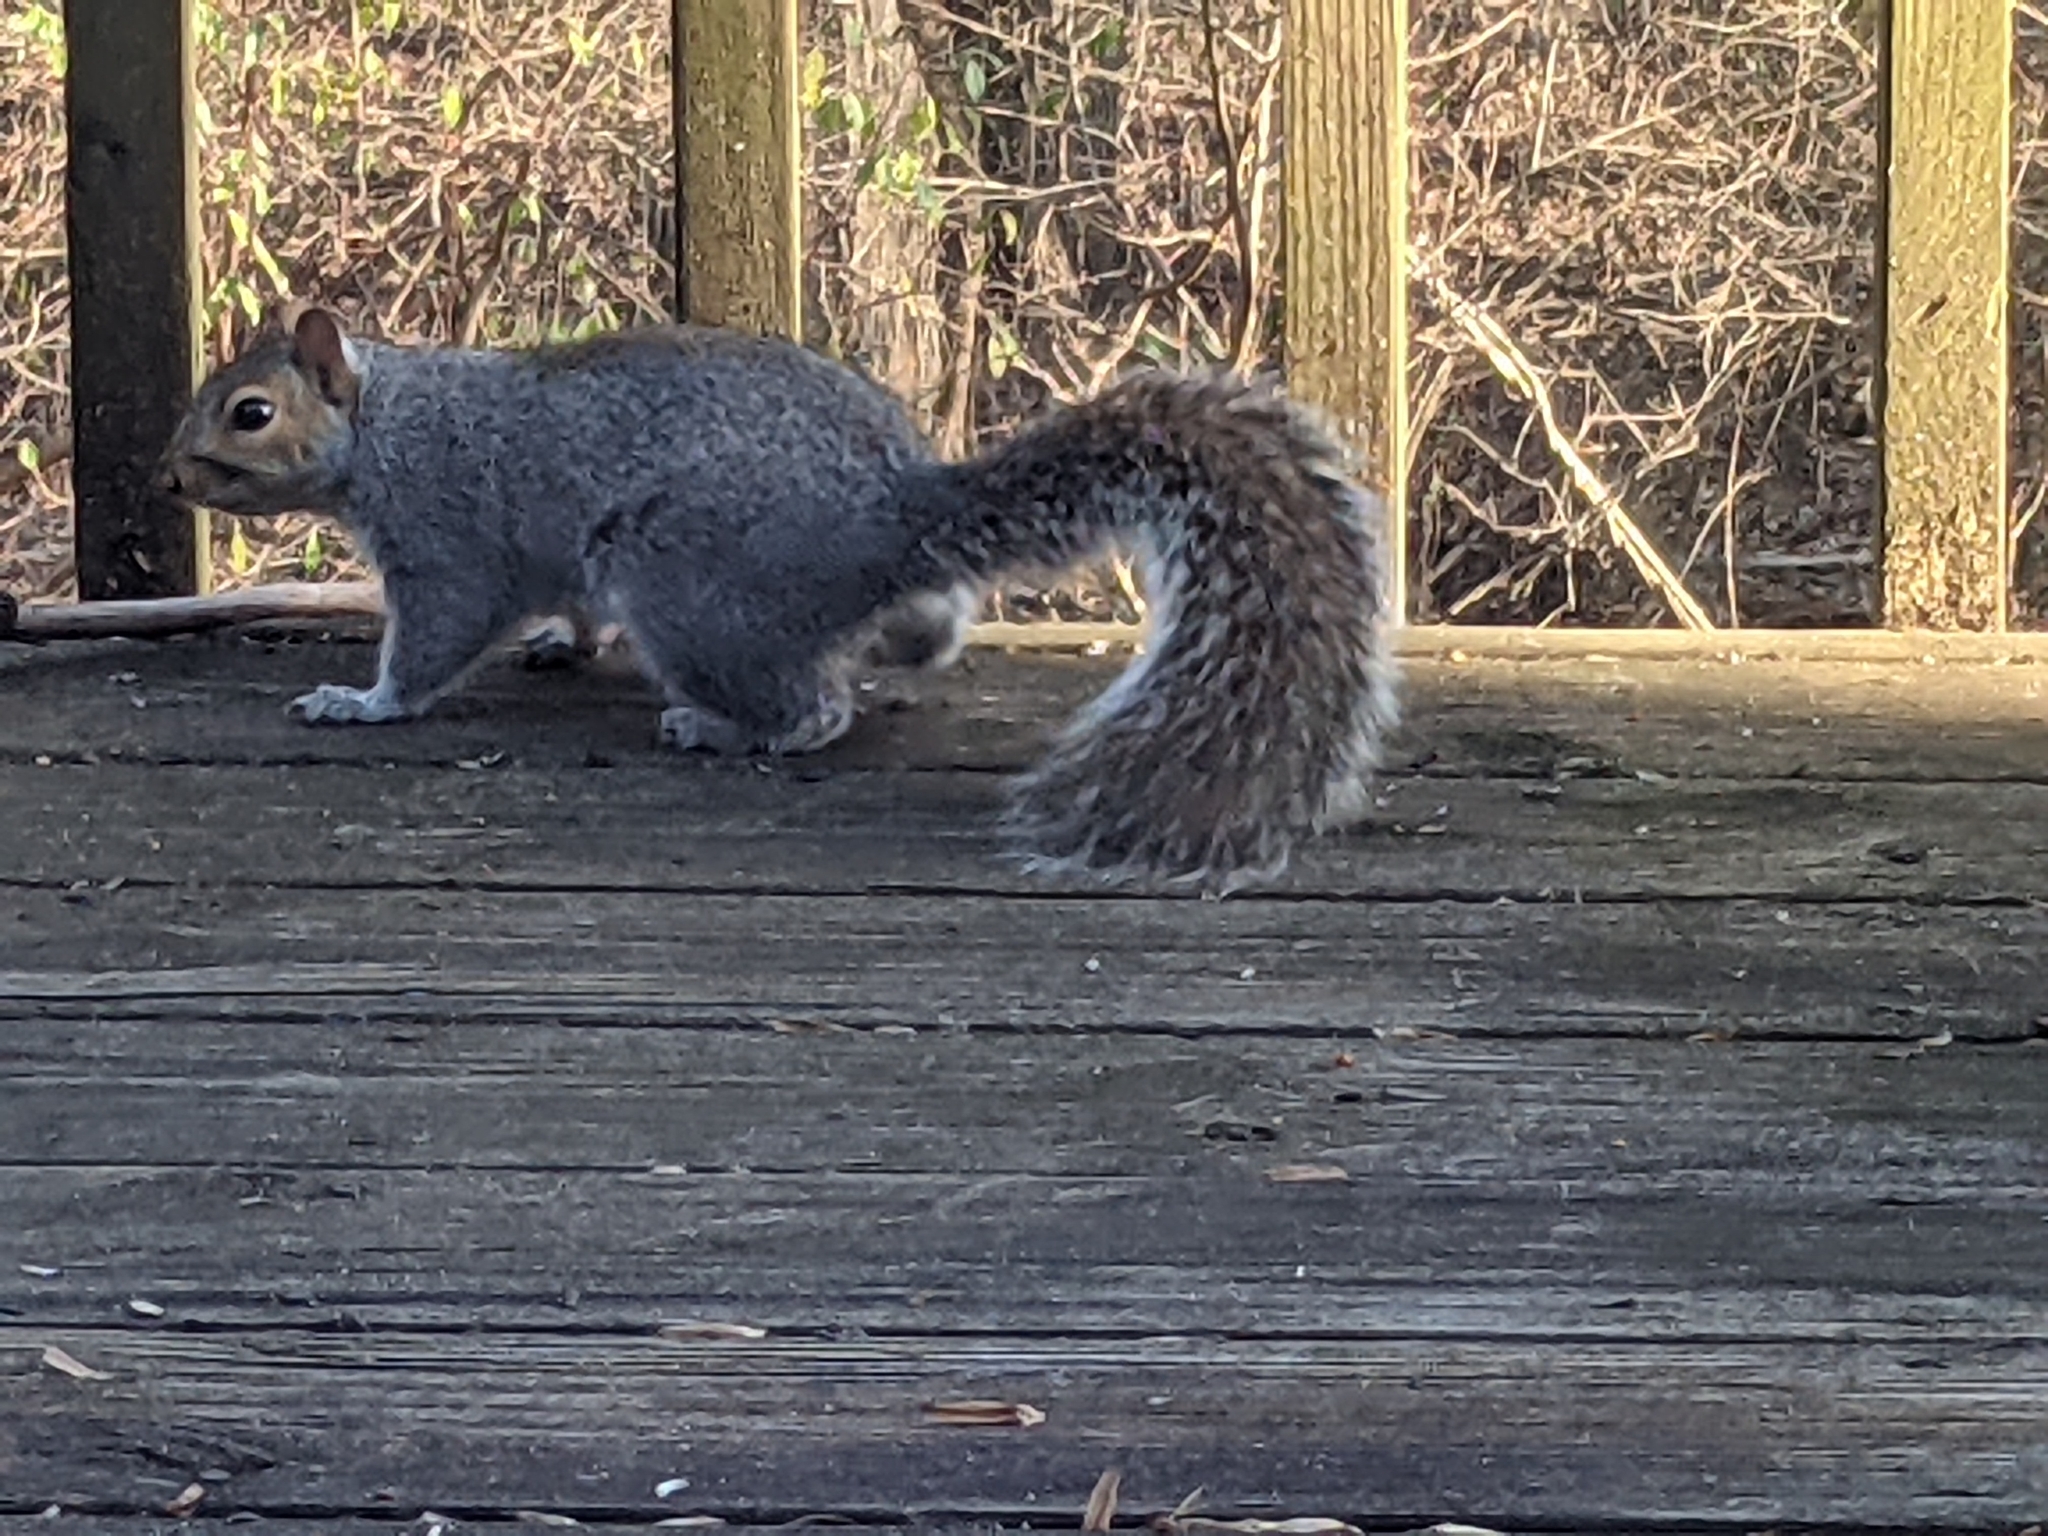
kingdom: Animalia
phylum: Chordata
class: Mammalia
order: Rodentia
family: Sciuridae
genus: Sciurus
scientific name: Sciurus carolinensis
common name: Eastern gray squirrel
